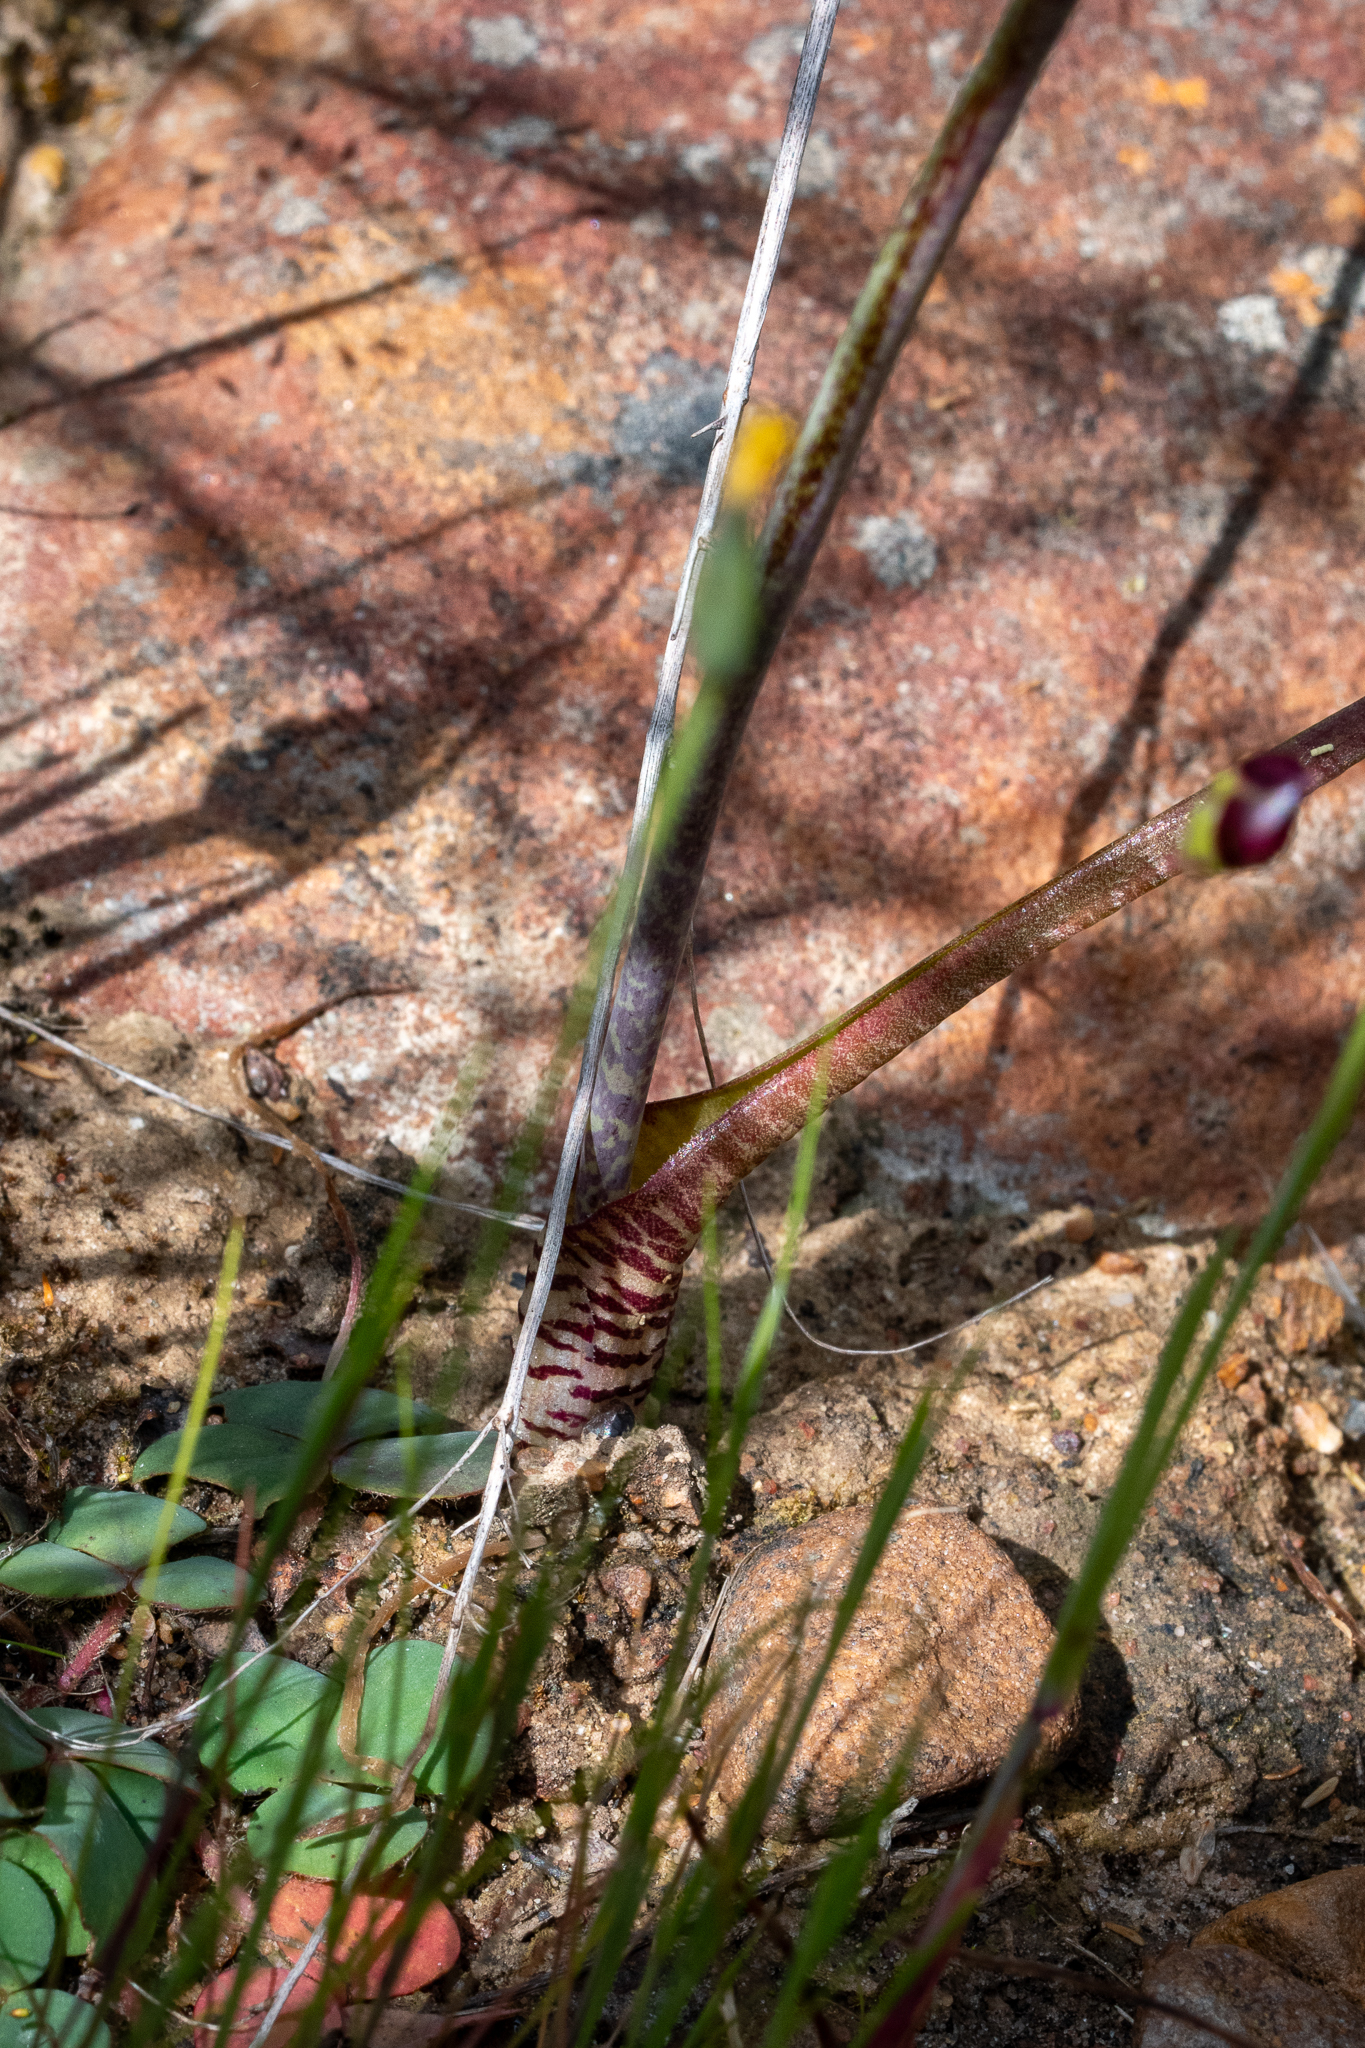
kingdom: Plantae
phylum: Tracheophyta
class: Liliopsida
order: Asparagales
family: Asparagaceae
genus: Lachenalia
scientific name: Lachenalia unifolia
